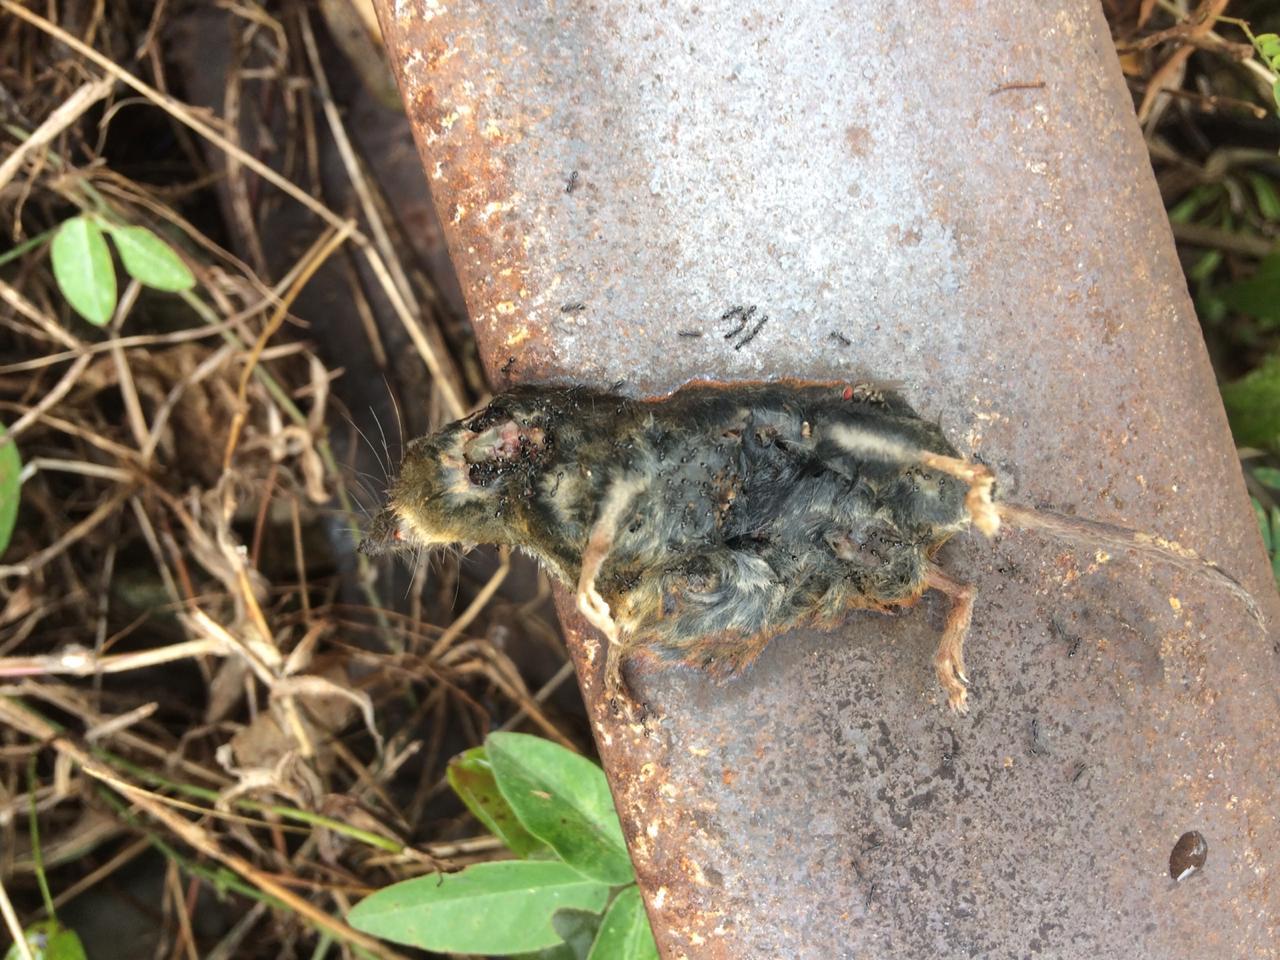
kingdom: Animalia
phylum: Chordata
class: Mammalia
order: Soricomorpha
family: Soricidae
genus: Cryptotis
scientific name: Cryptotis mayensis
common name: Yucatan small-eared shrew
